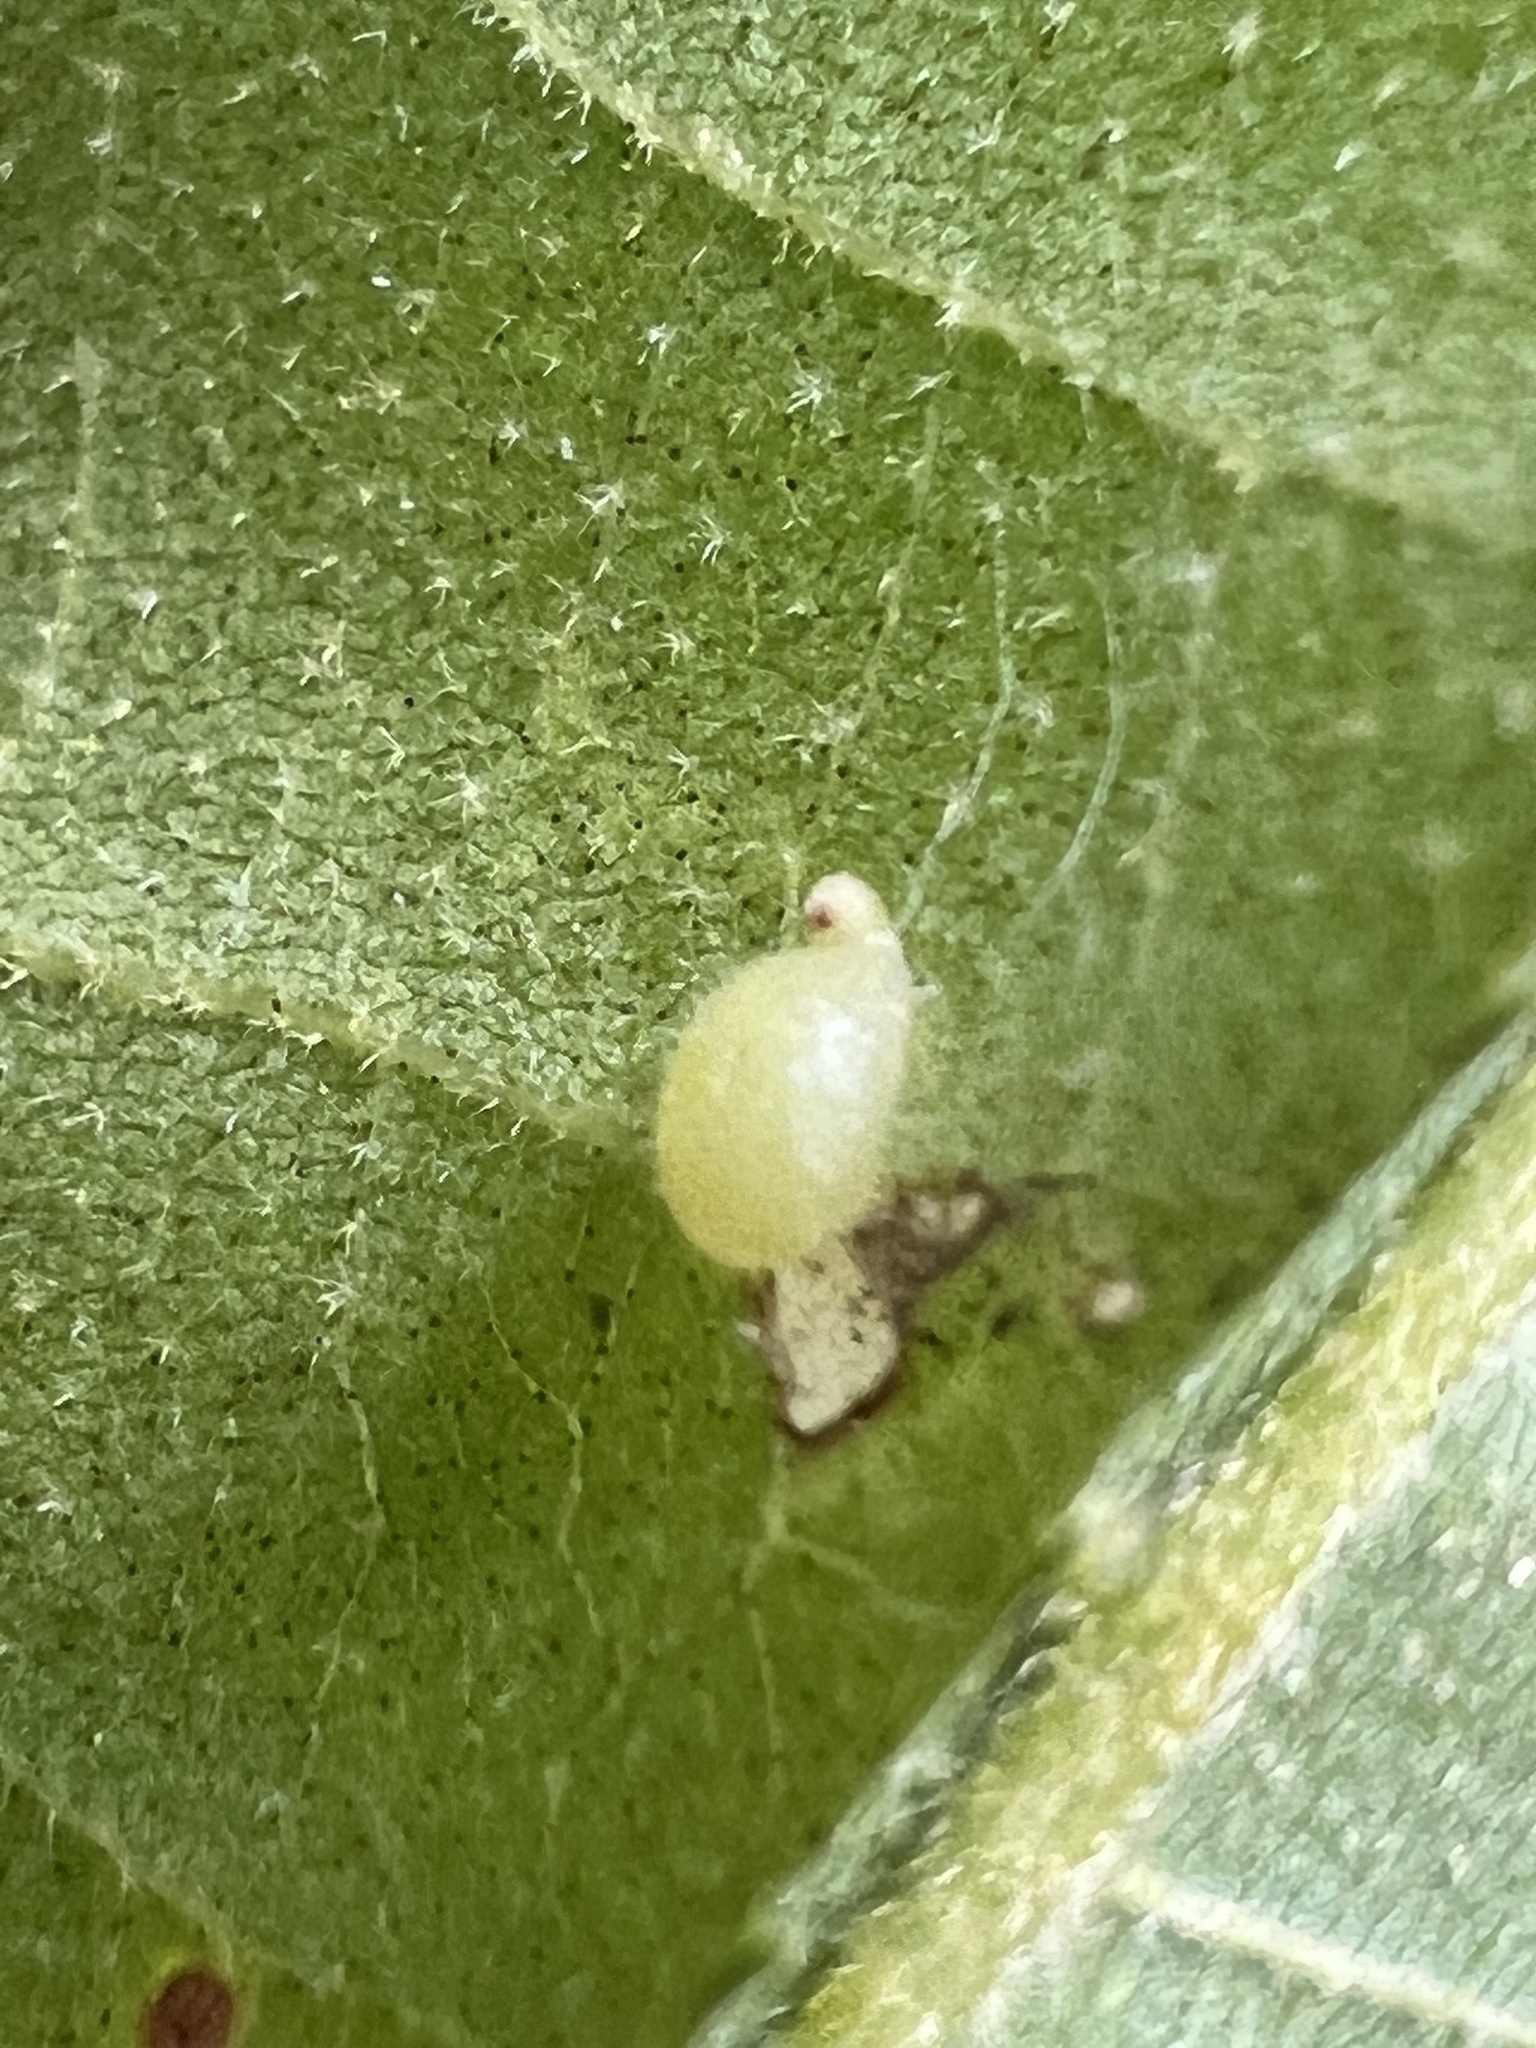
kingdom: Animalia
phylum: Arthropoda
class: Insecta
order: Diptera
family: Cecidomyiidae
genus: Caryomyia
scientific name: Caryomyia eumaris
